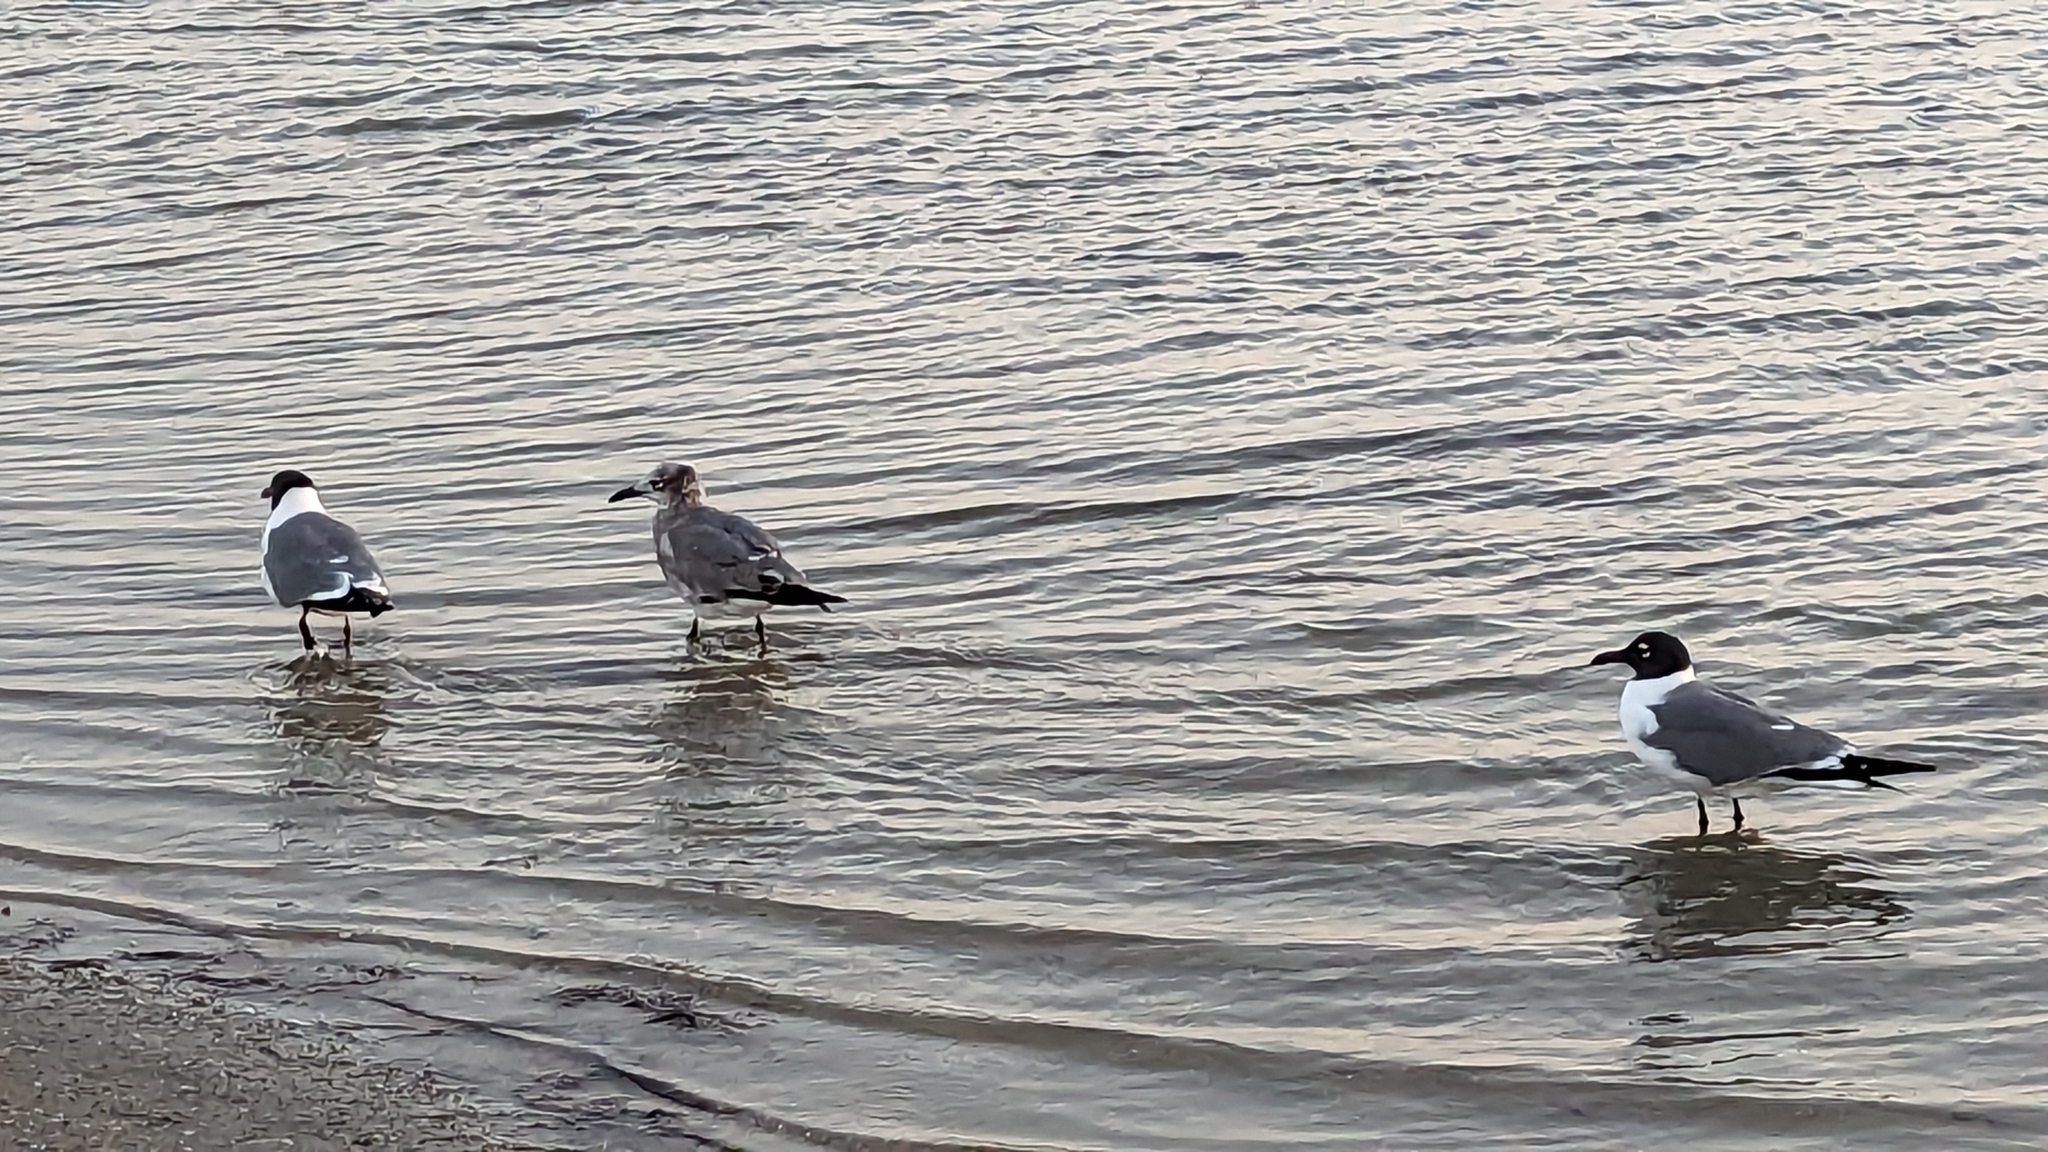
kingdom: Animalia
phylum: Chordata
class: Aves
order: Charadriiformes
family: Laridae
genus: Leucophaeus
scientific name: Leucophaeus atricilla
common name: Laughing gull
